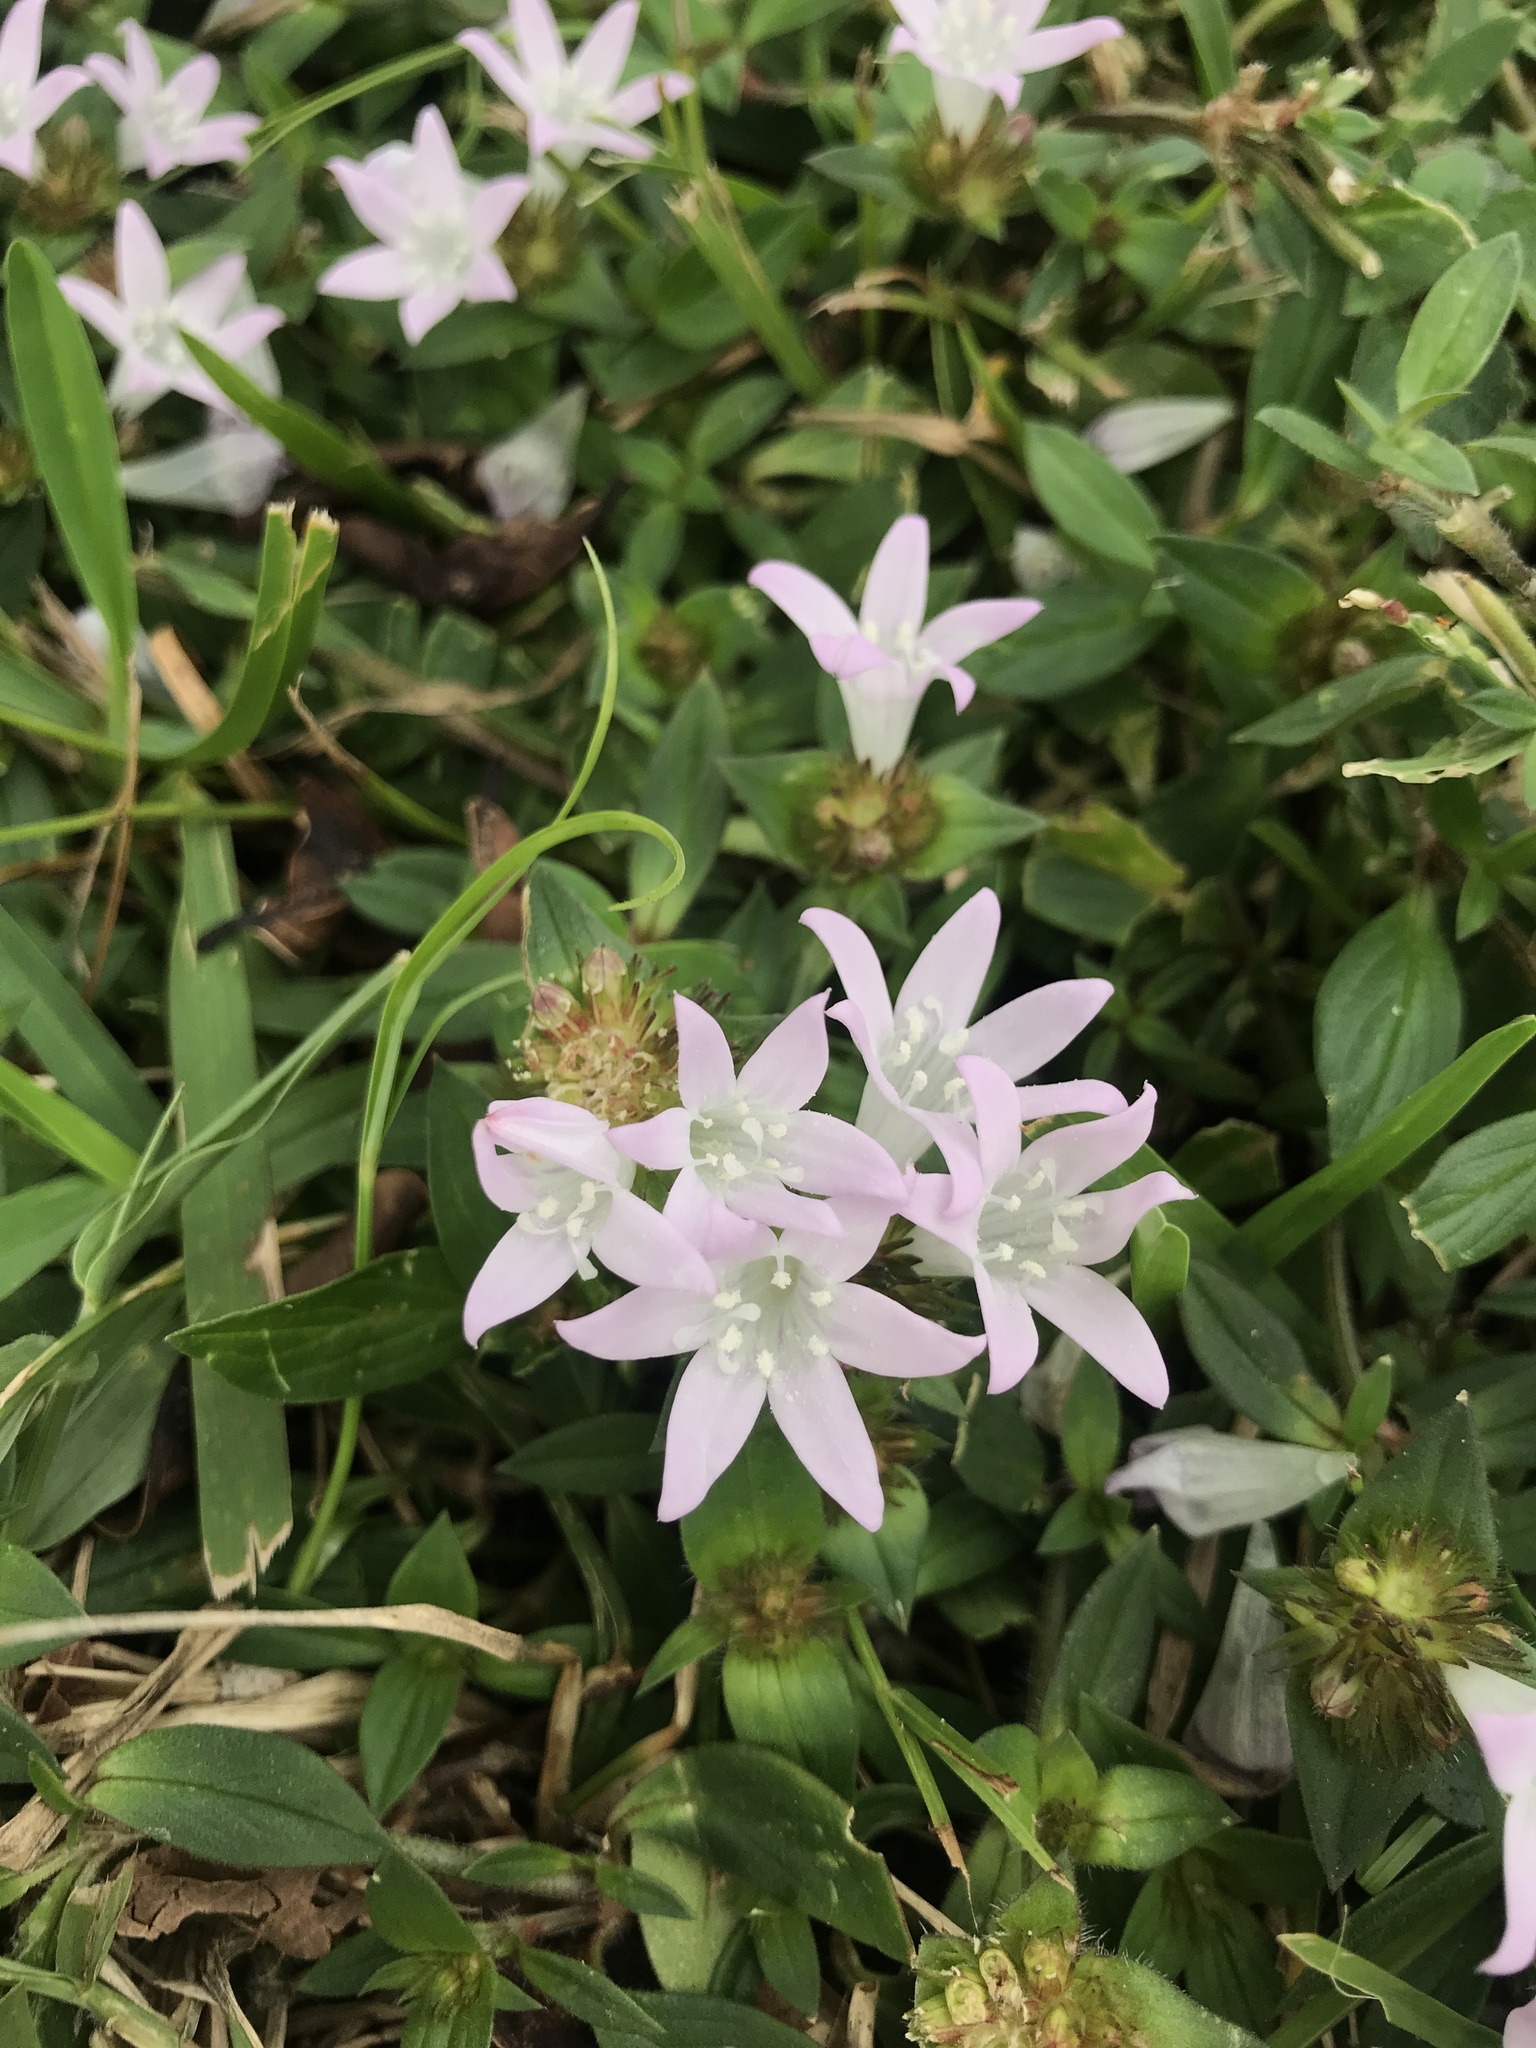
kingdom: Plantae
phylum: Tracheophyta
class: Magnoliopsida
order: Gentianales
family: Rubiaceae
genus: Richardia
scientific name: Richardia grandiflora
